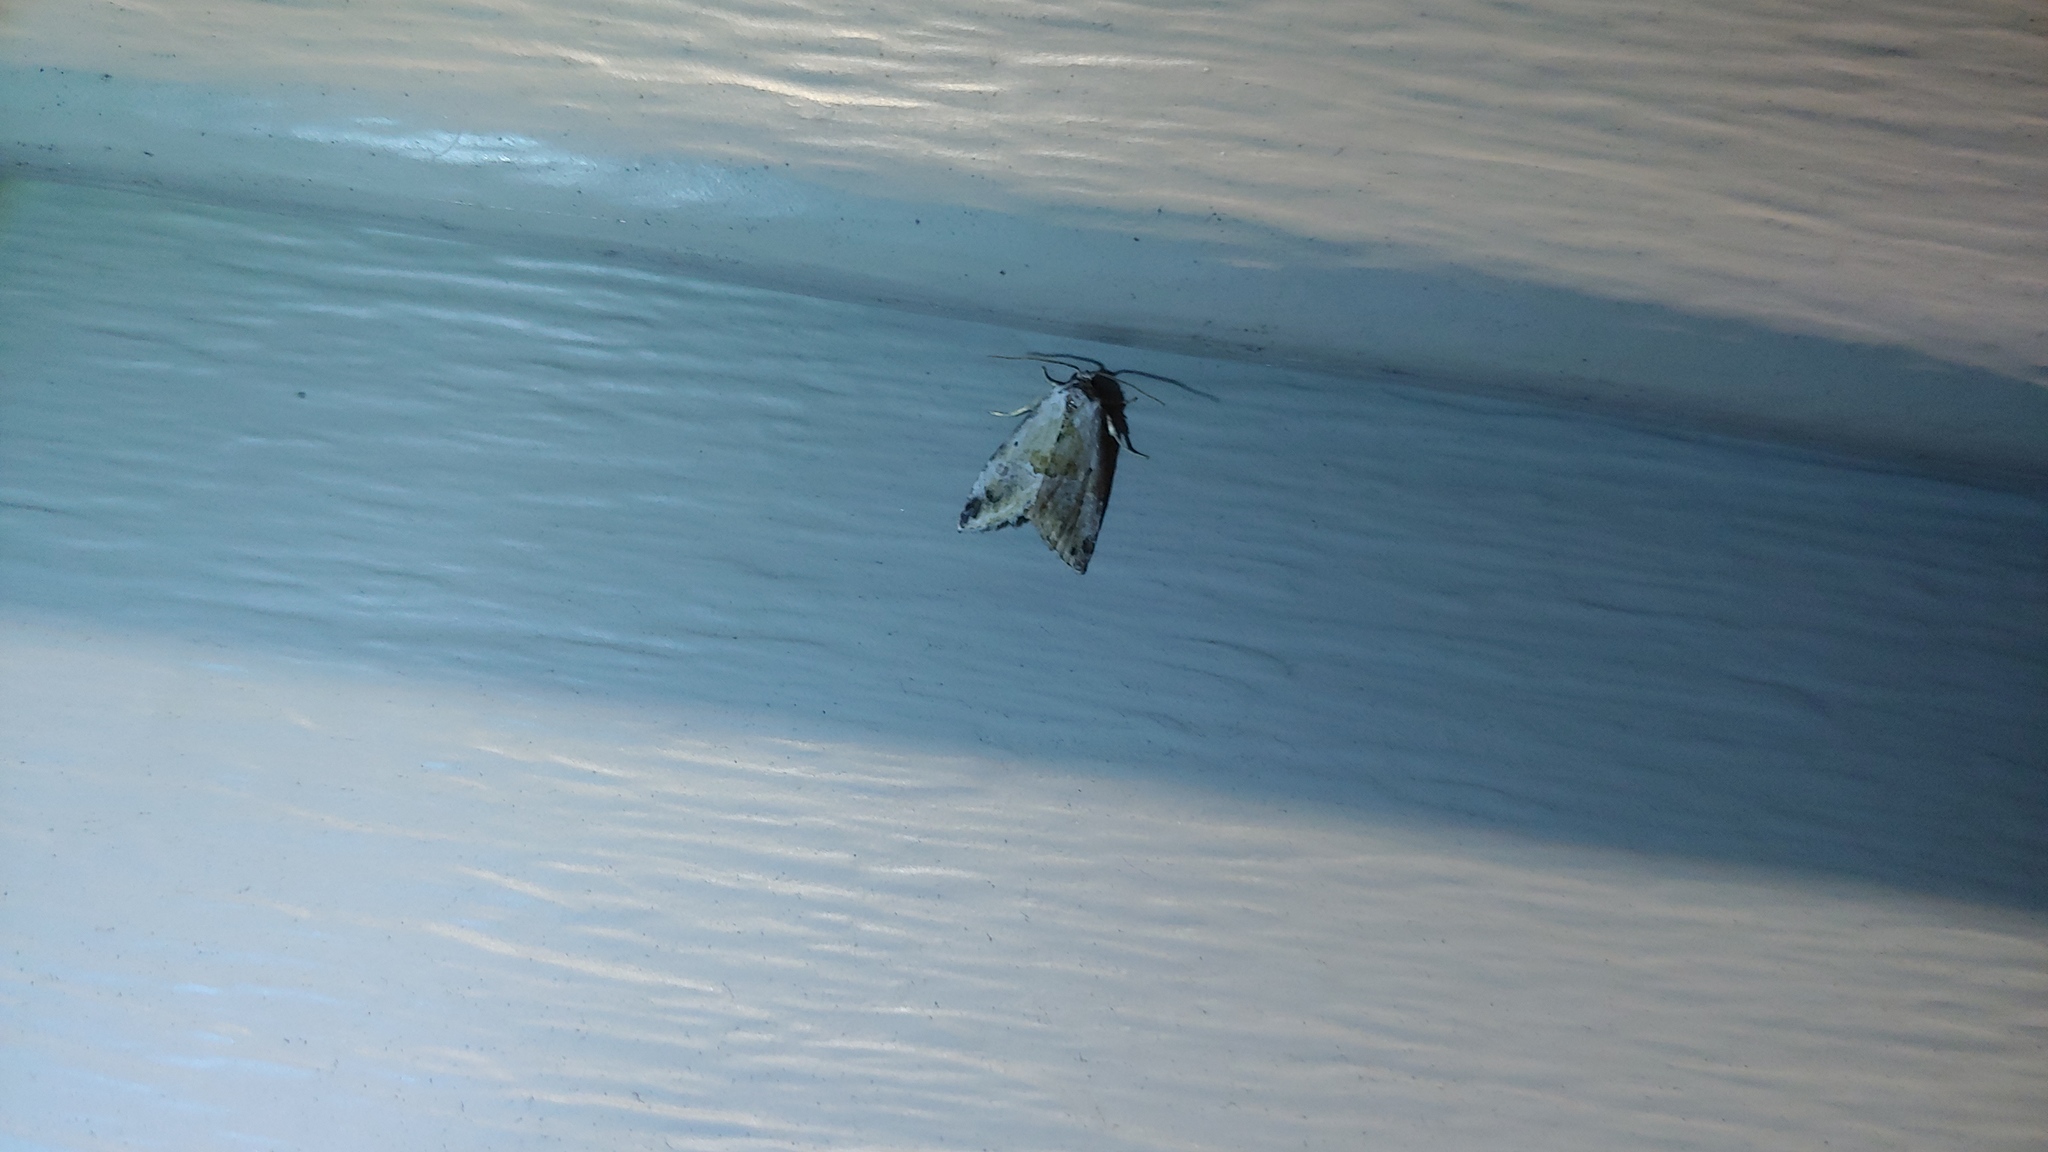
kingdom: Animalia
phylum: Arthropoda
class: Insecta
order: Lepidoptera
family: Noctuidae
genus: Maliattha
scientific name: Maliattha synochitis
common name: Black-dotted glyph
